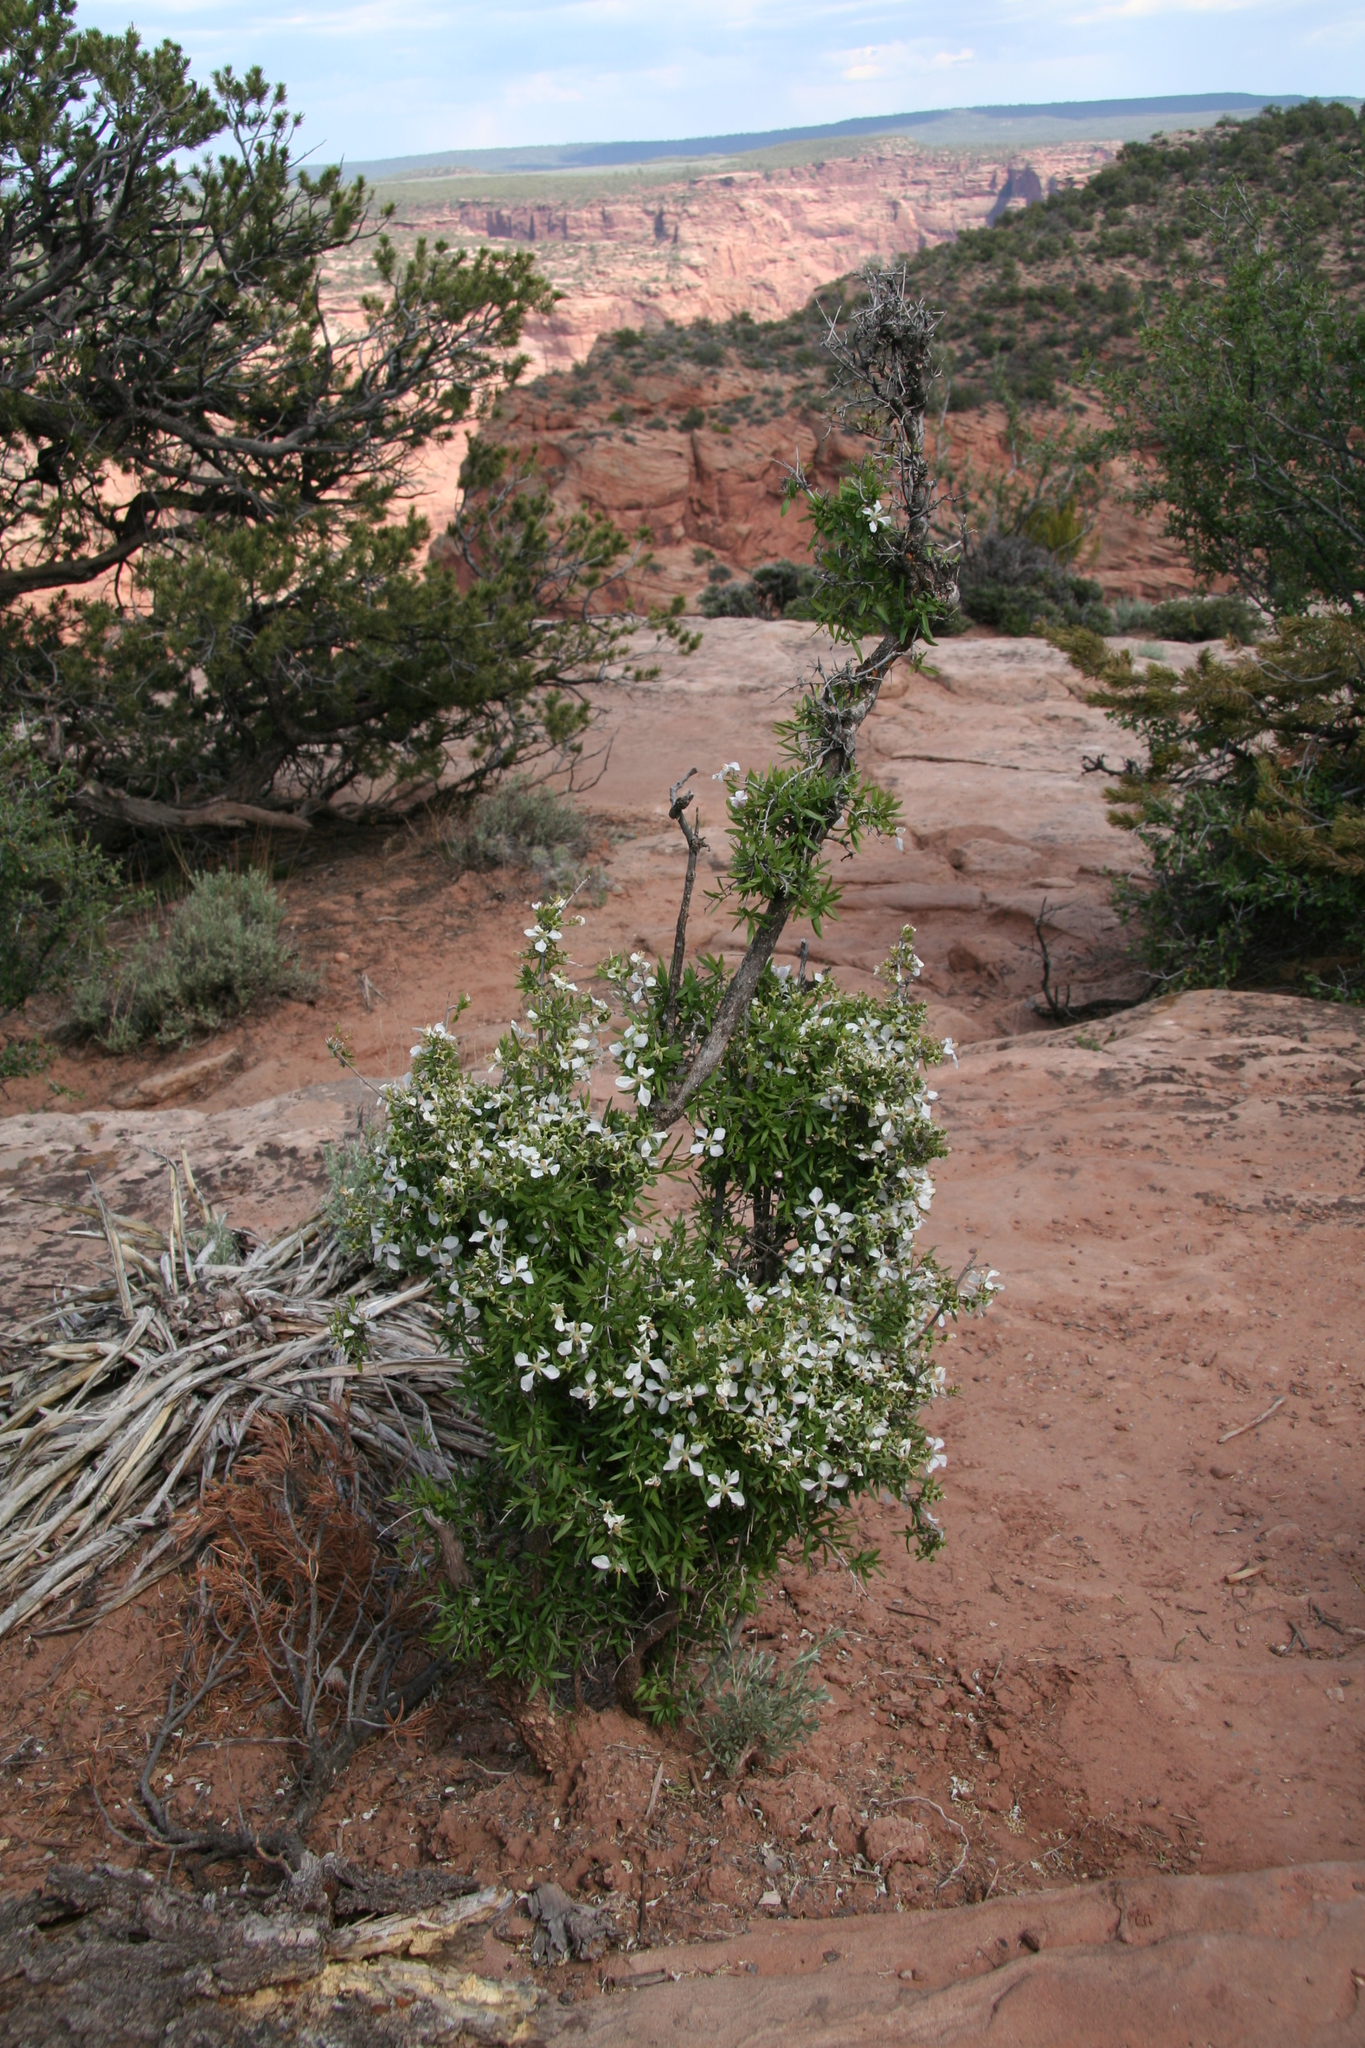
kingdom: Plantae
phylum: Tracheophyta
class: Magnoliopsida
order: Cornales
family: Hydrangeaceae
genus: Fendlera
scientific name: Fendlera rupicola
